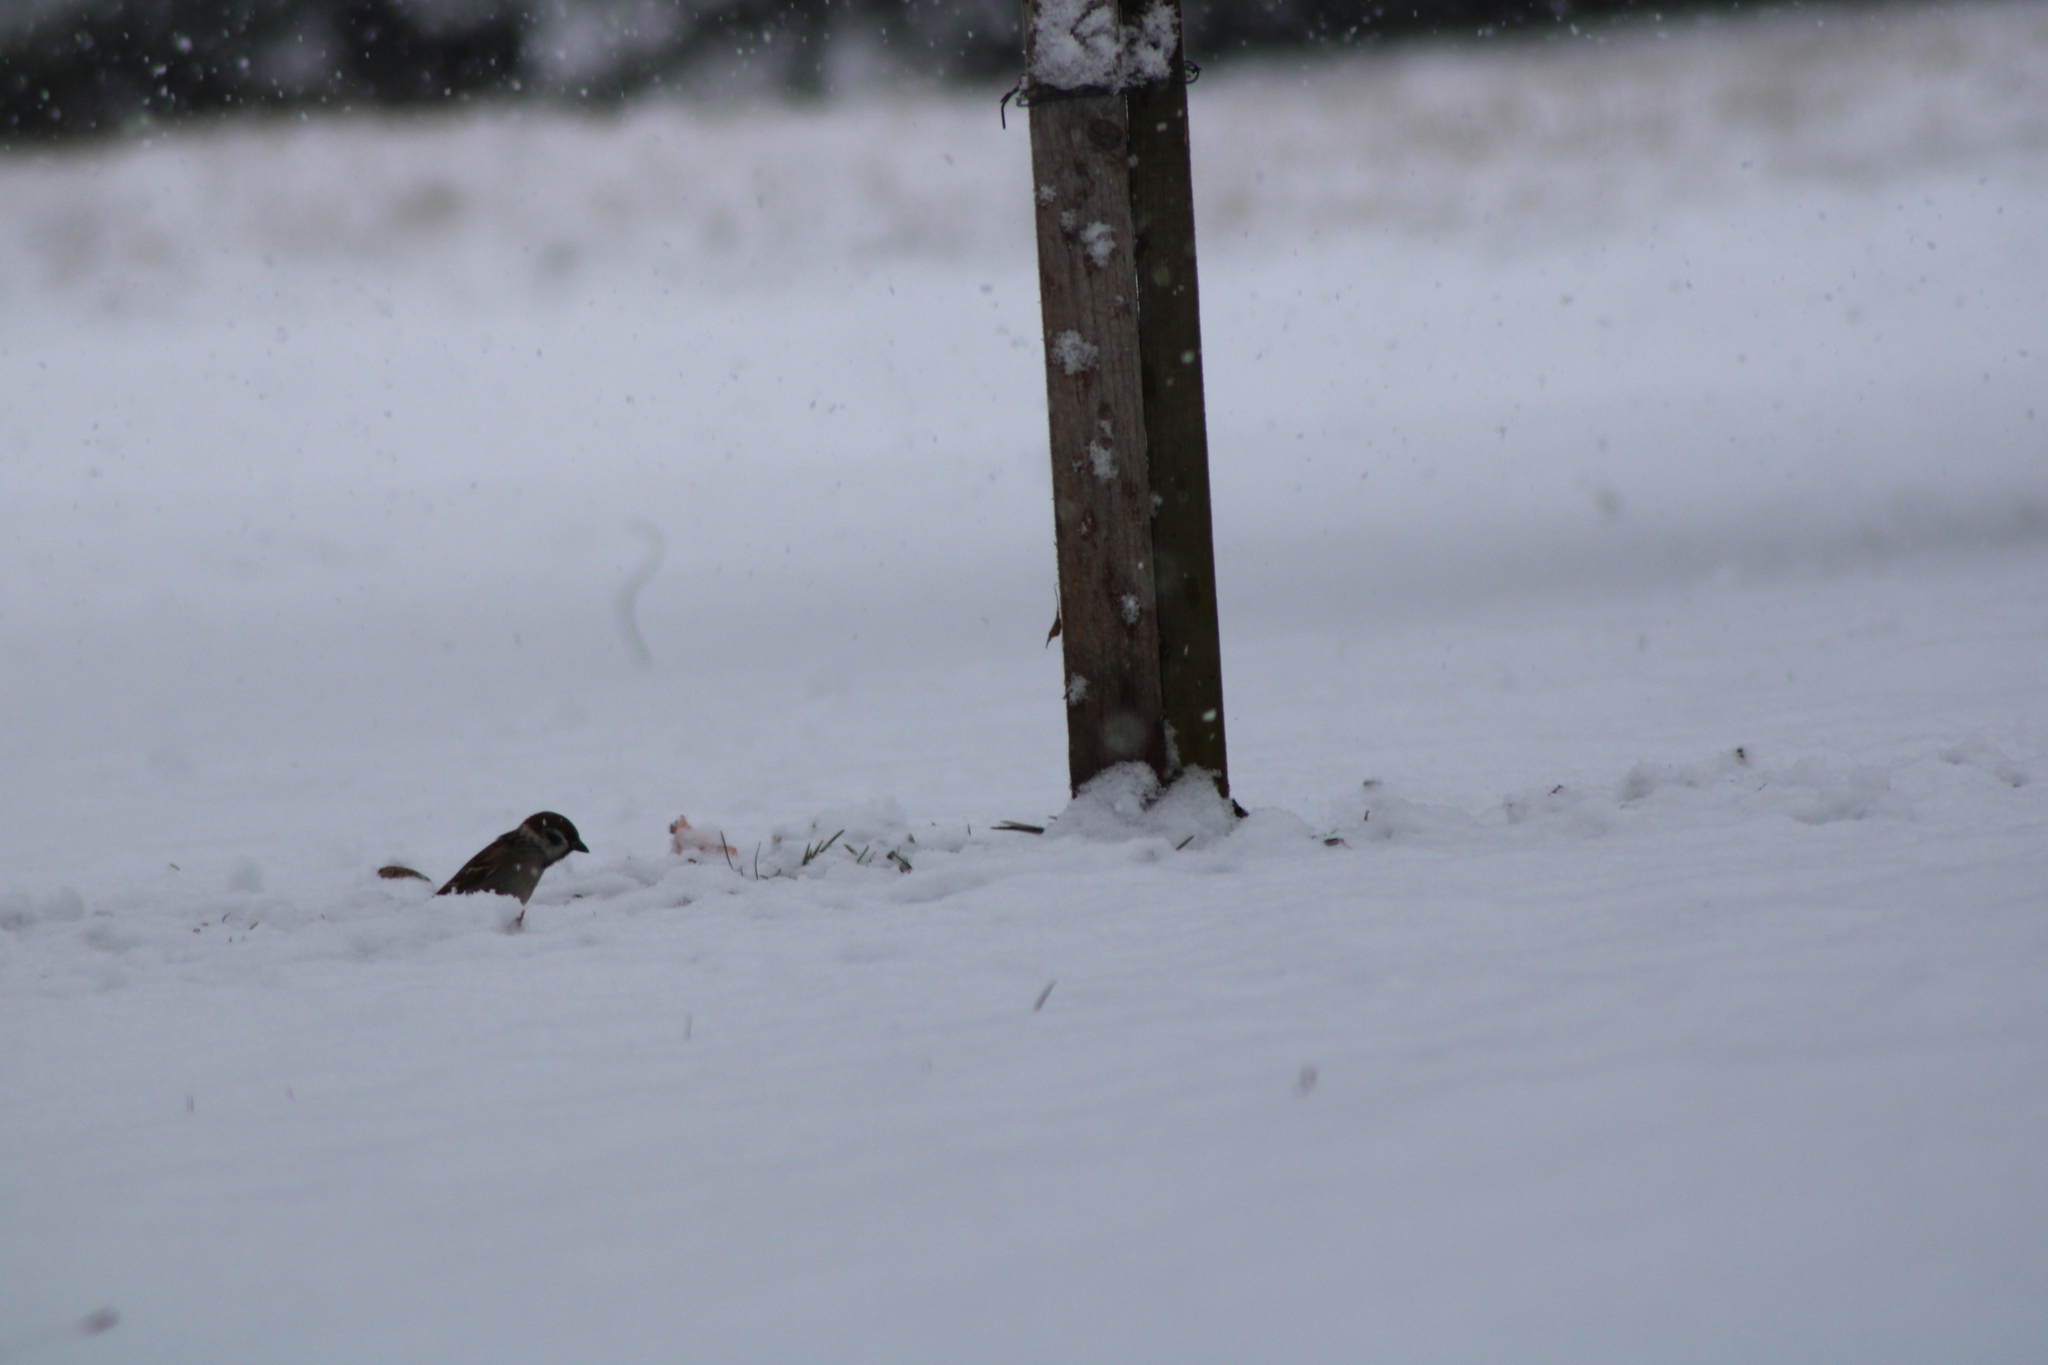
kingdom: Animalia
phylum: Chordata
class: Aves
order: Passeriformes
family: Passeridae
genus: Passer
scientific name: Passer montanus
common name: Eurasian tree sparrow
